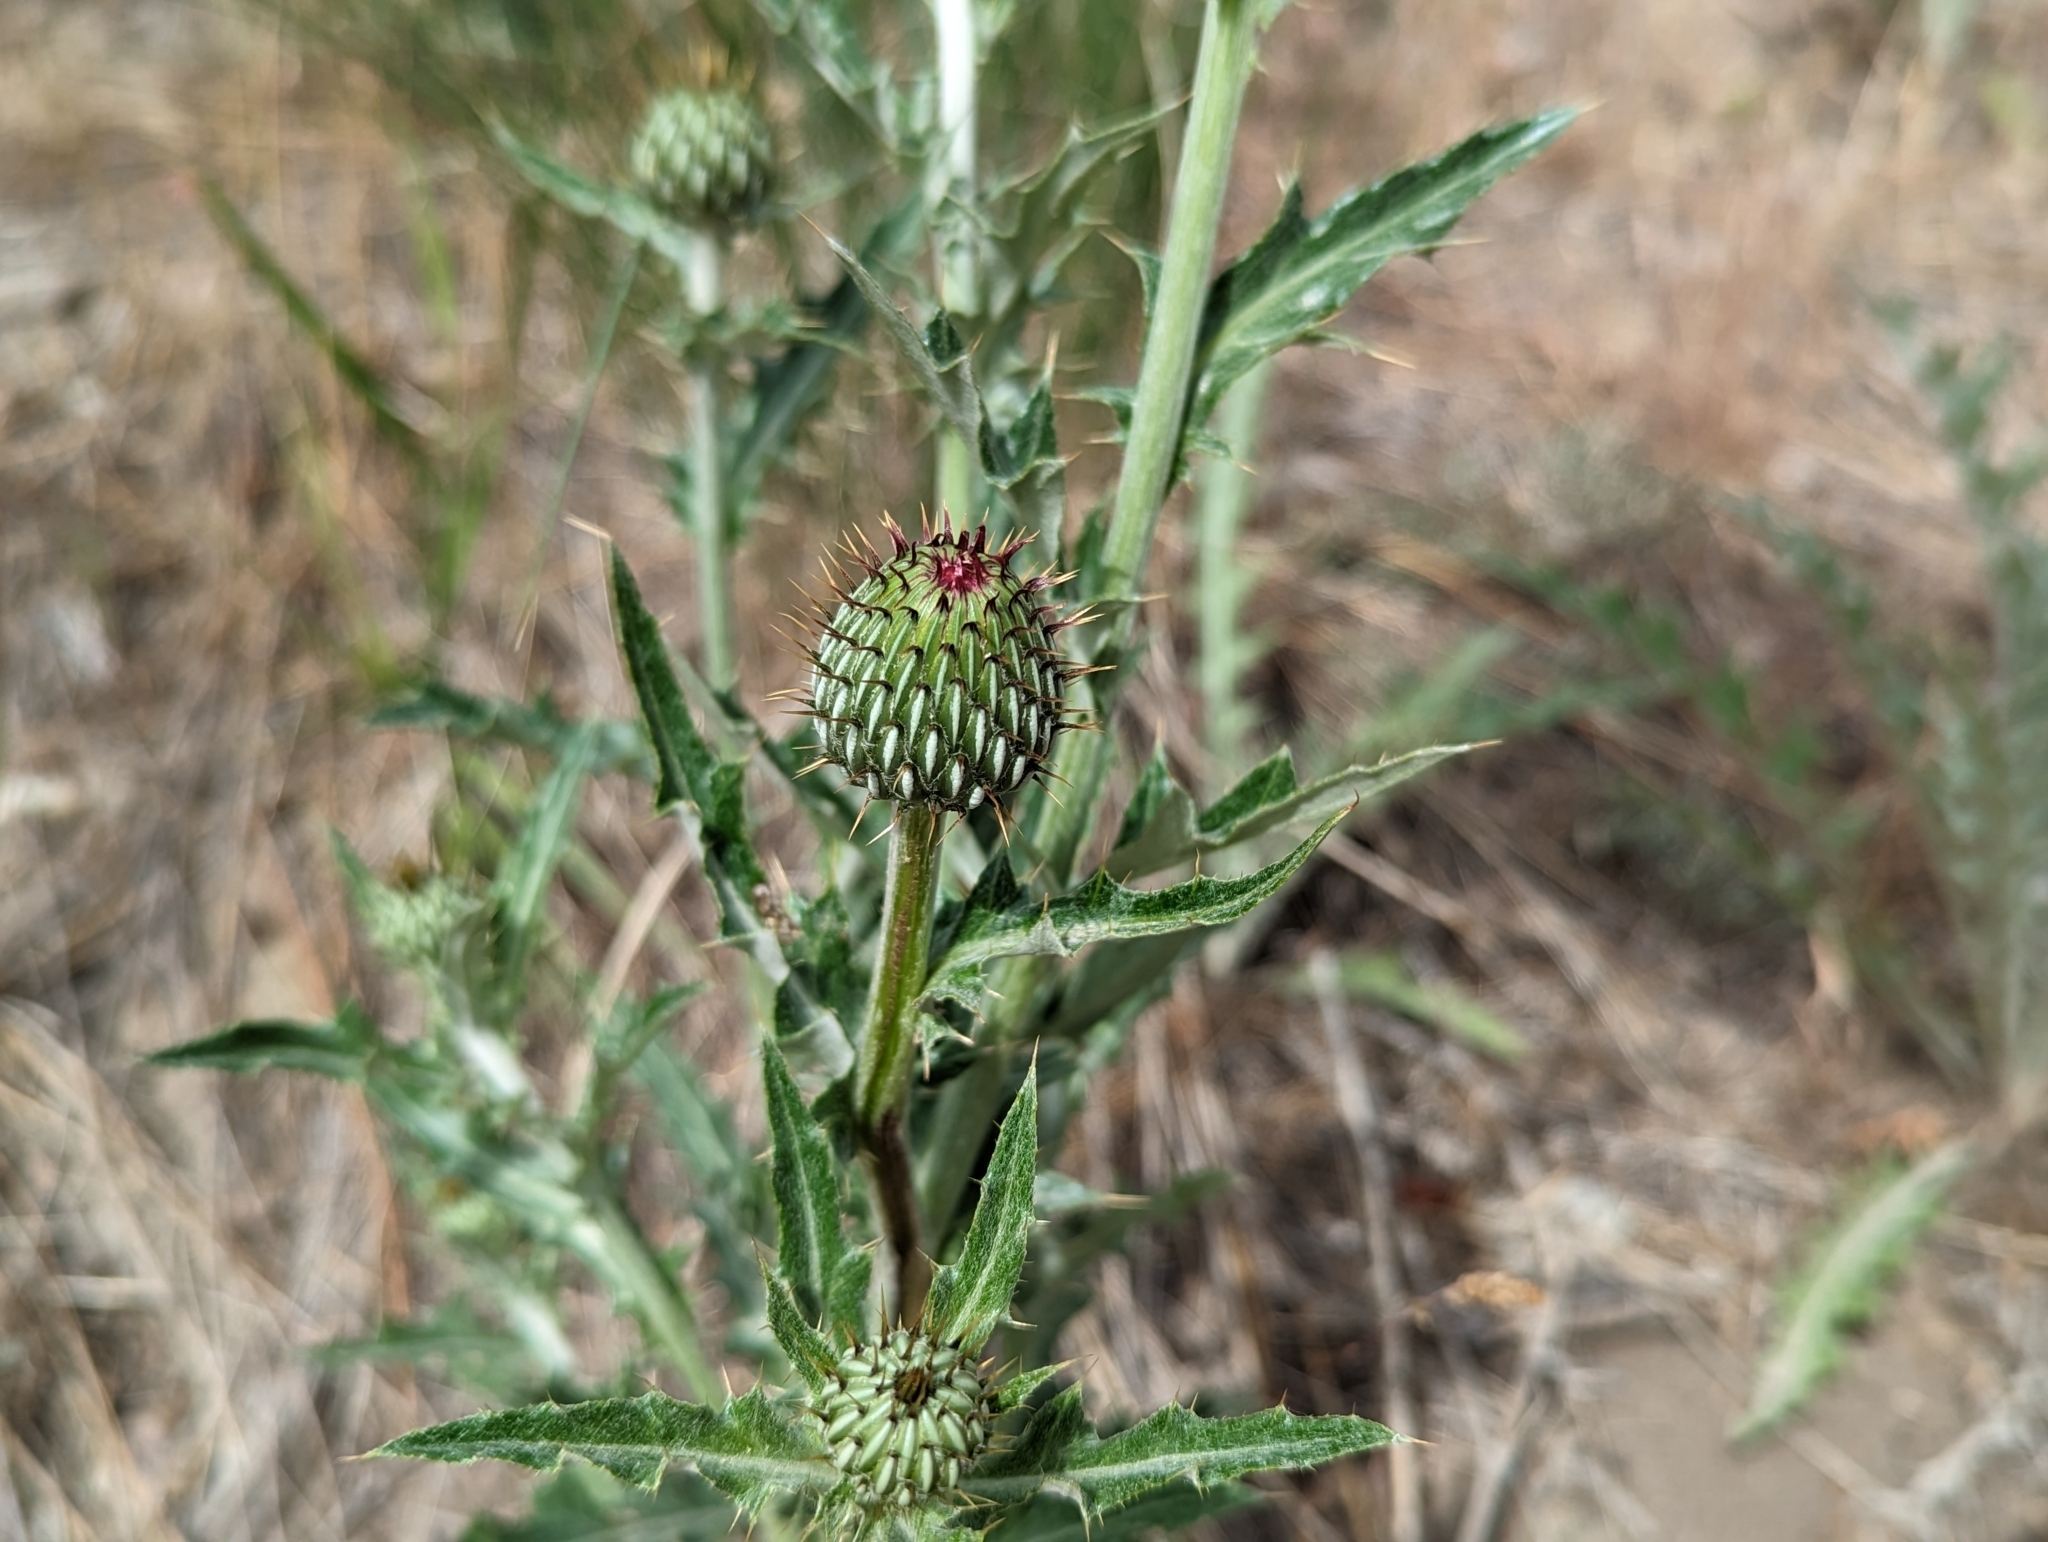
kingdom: Plantae
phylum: Tracheophyta
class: Magnoliopsida
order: Asterales
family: Asteraceae
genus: Cirsium
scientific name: Cirsium undulatum
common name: Pasture thistle
